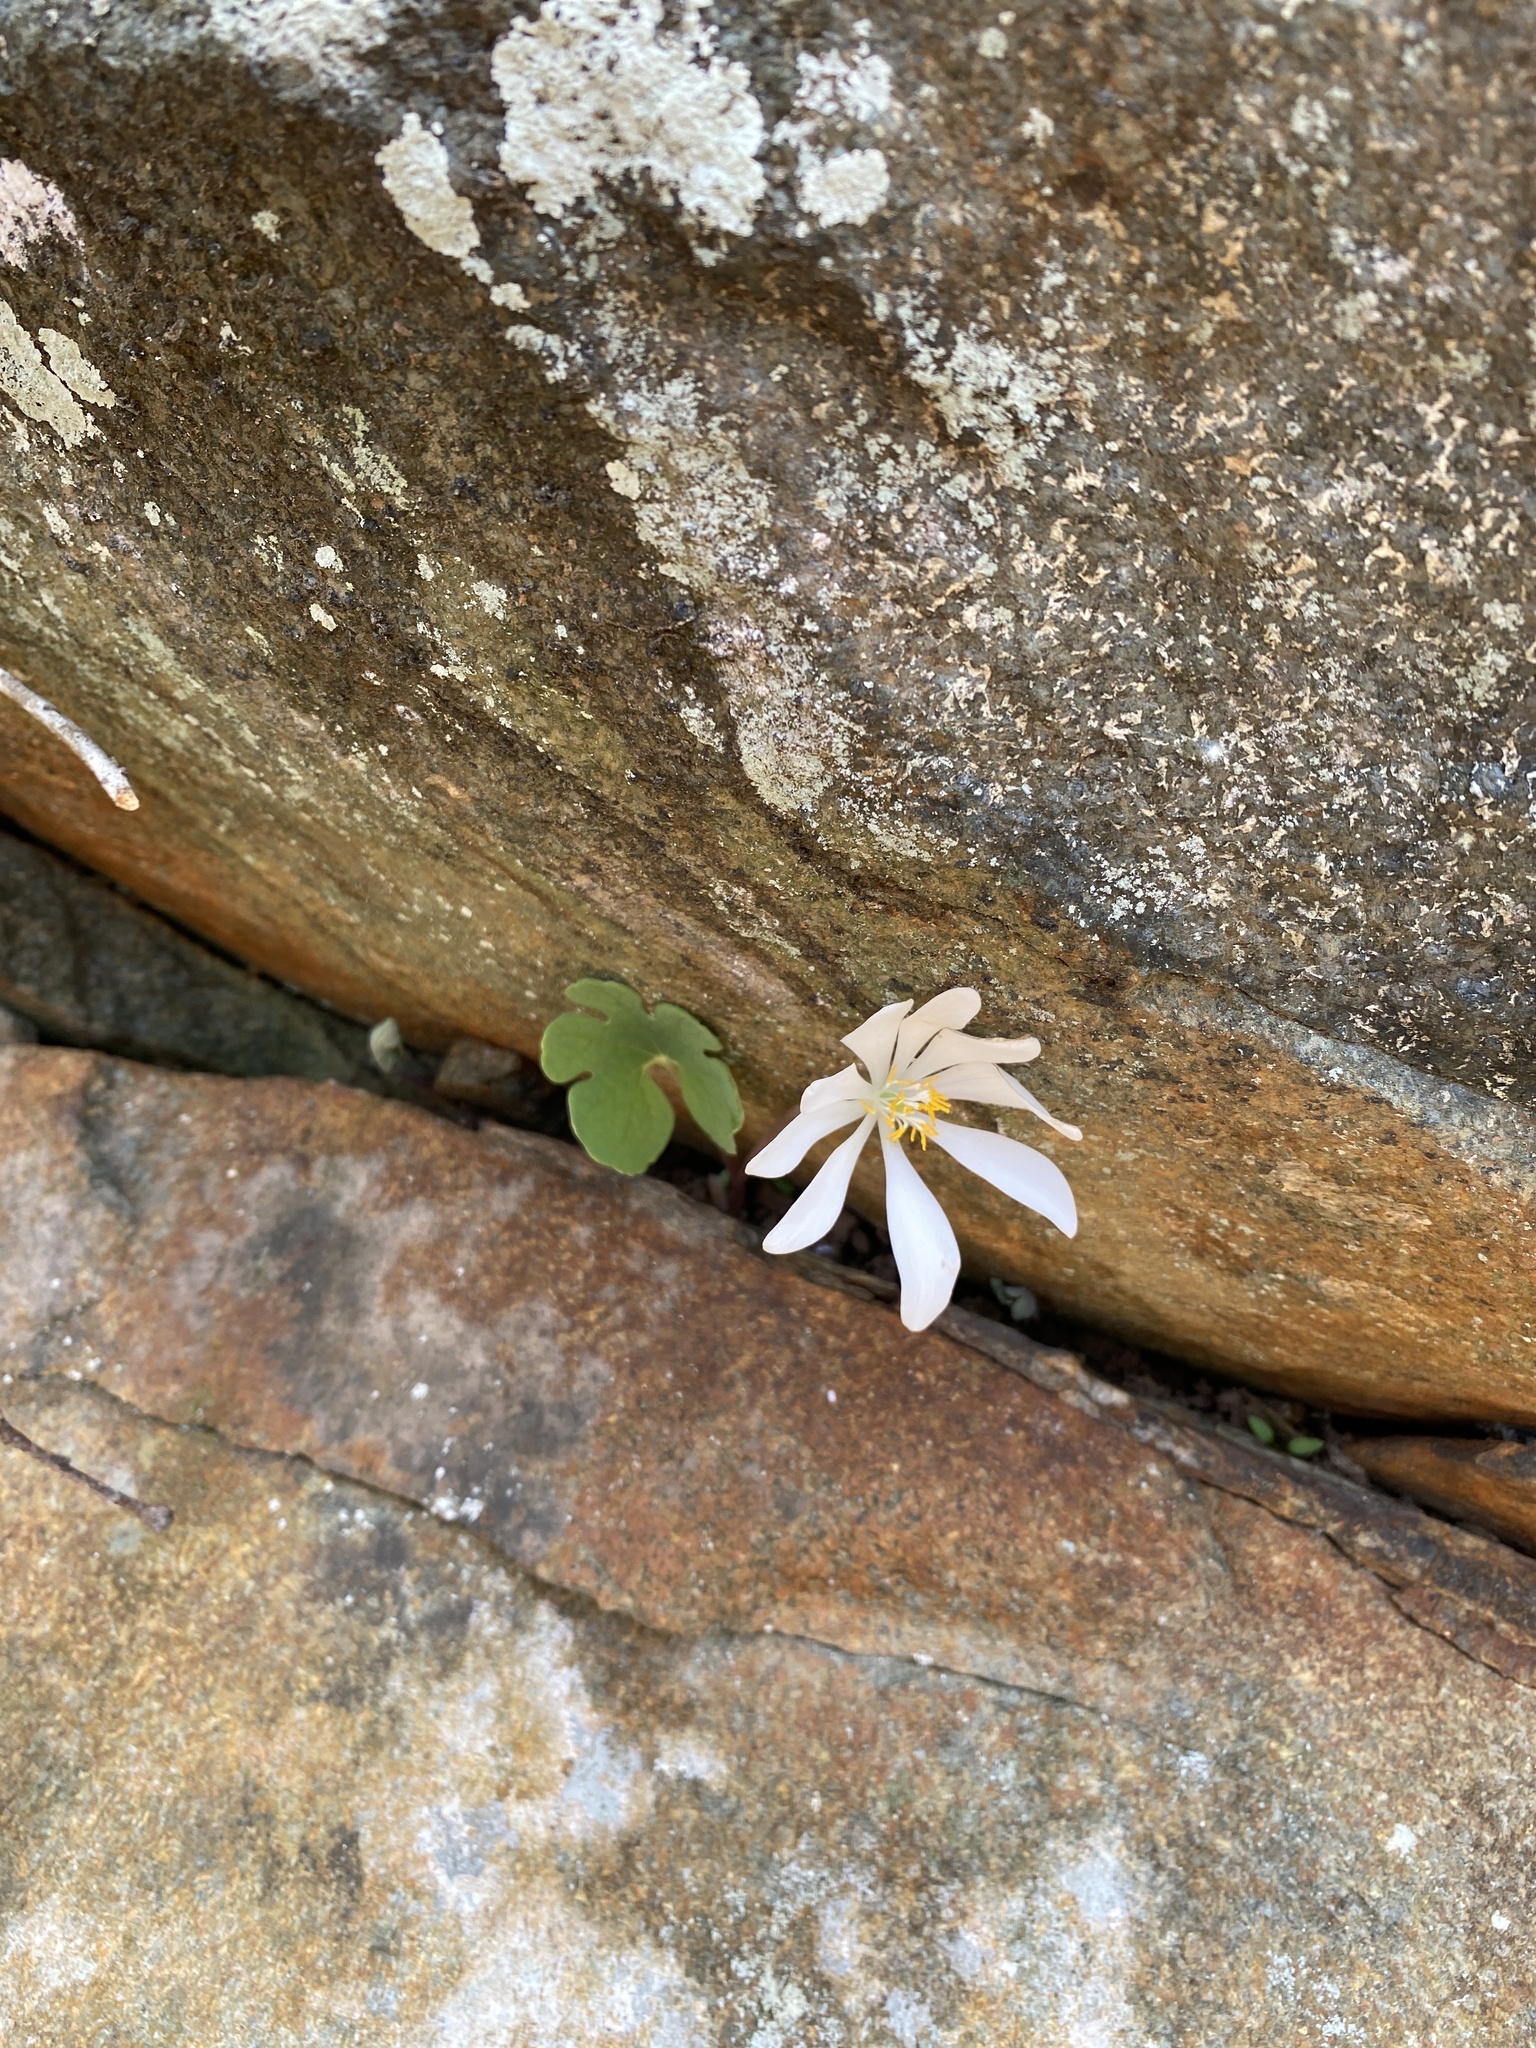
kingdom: Plantae
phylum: Tracheophyta
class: Magnoliopsida
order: Ranunculales
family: Papaveraceae
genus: Sanguinaria
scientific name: Sanguinaria canadensis
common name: Bloodroot
